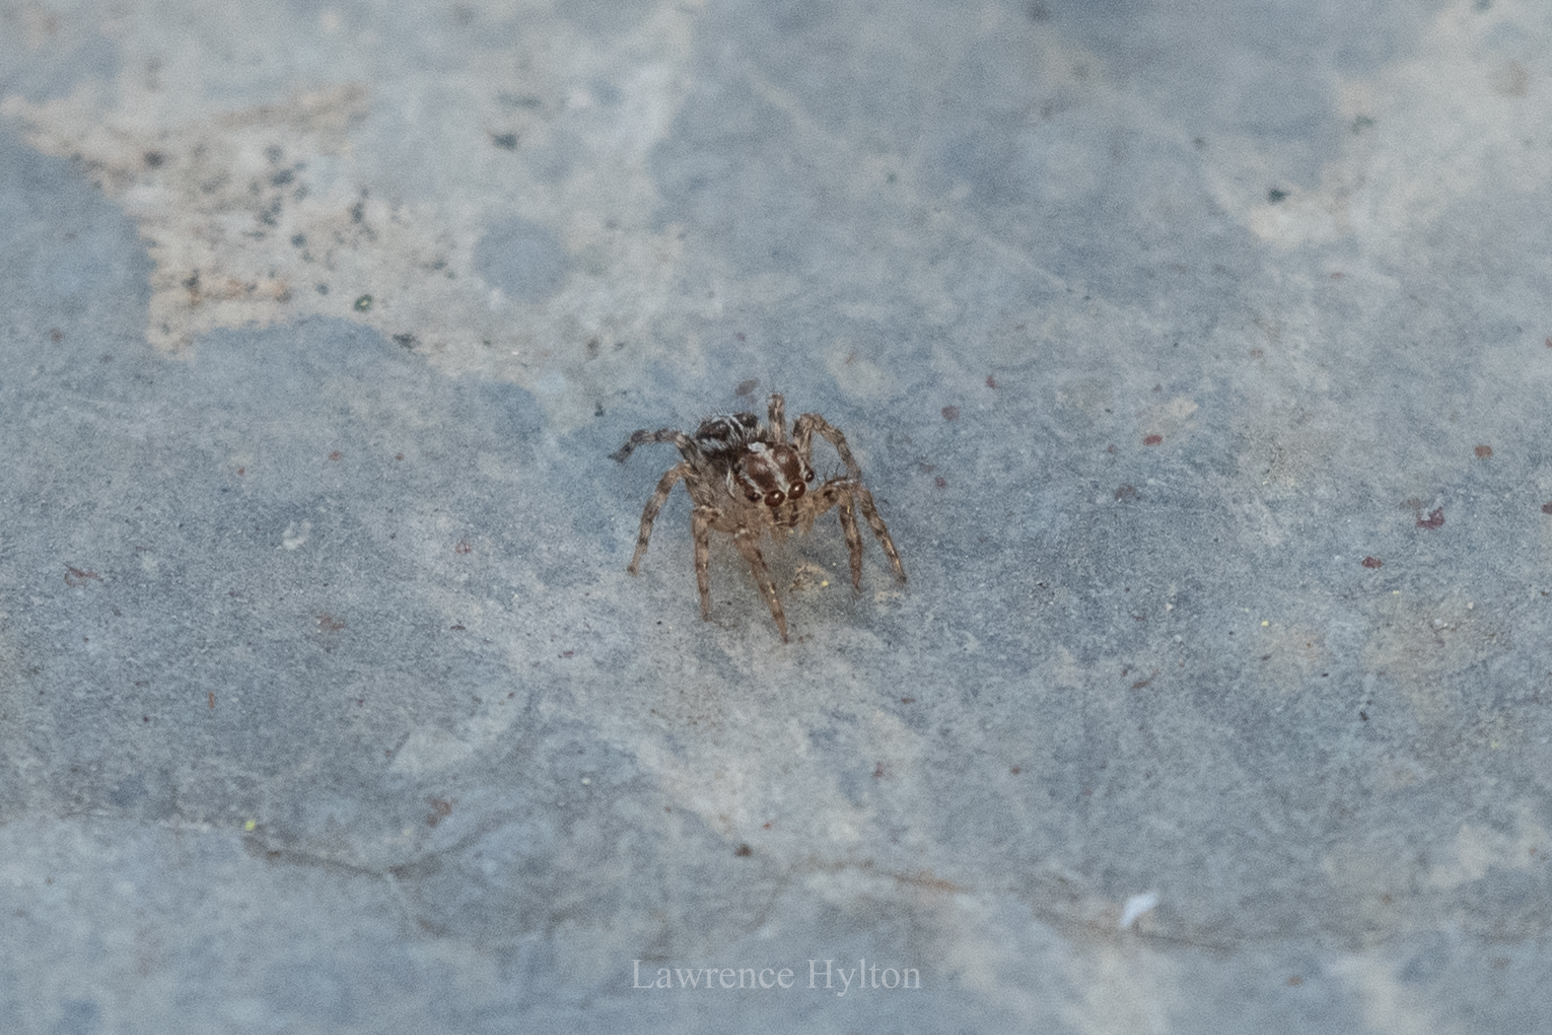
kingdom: Animalia
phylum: Arthropoda
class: Arachnida
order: Araneae
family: Salticidae
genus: Plexippus
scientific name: Plexippus paykulli
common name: Pantropical jumper
